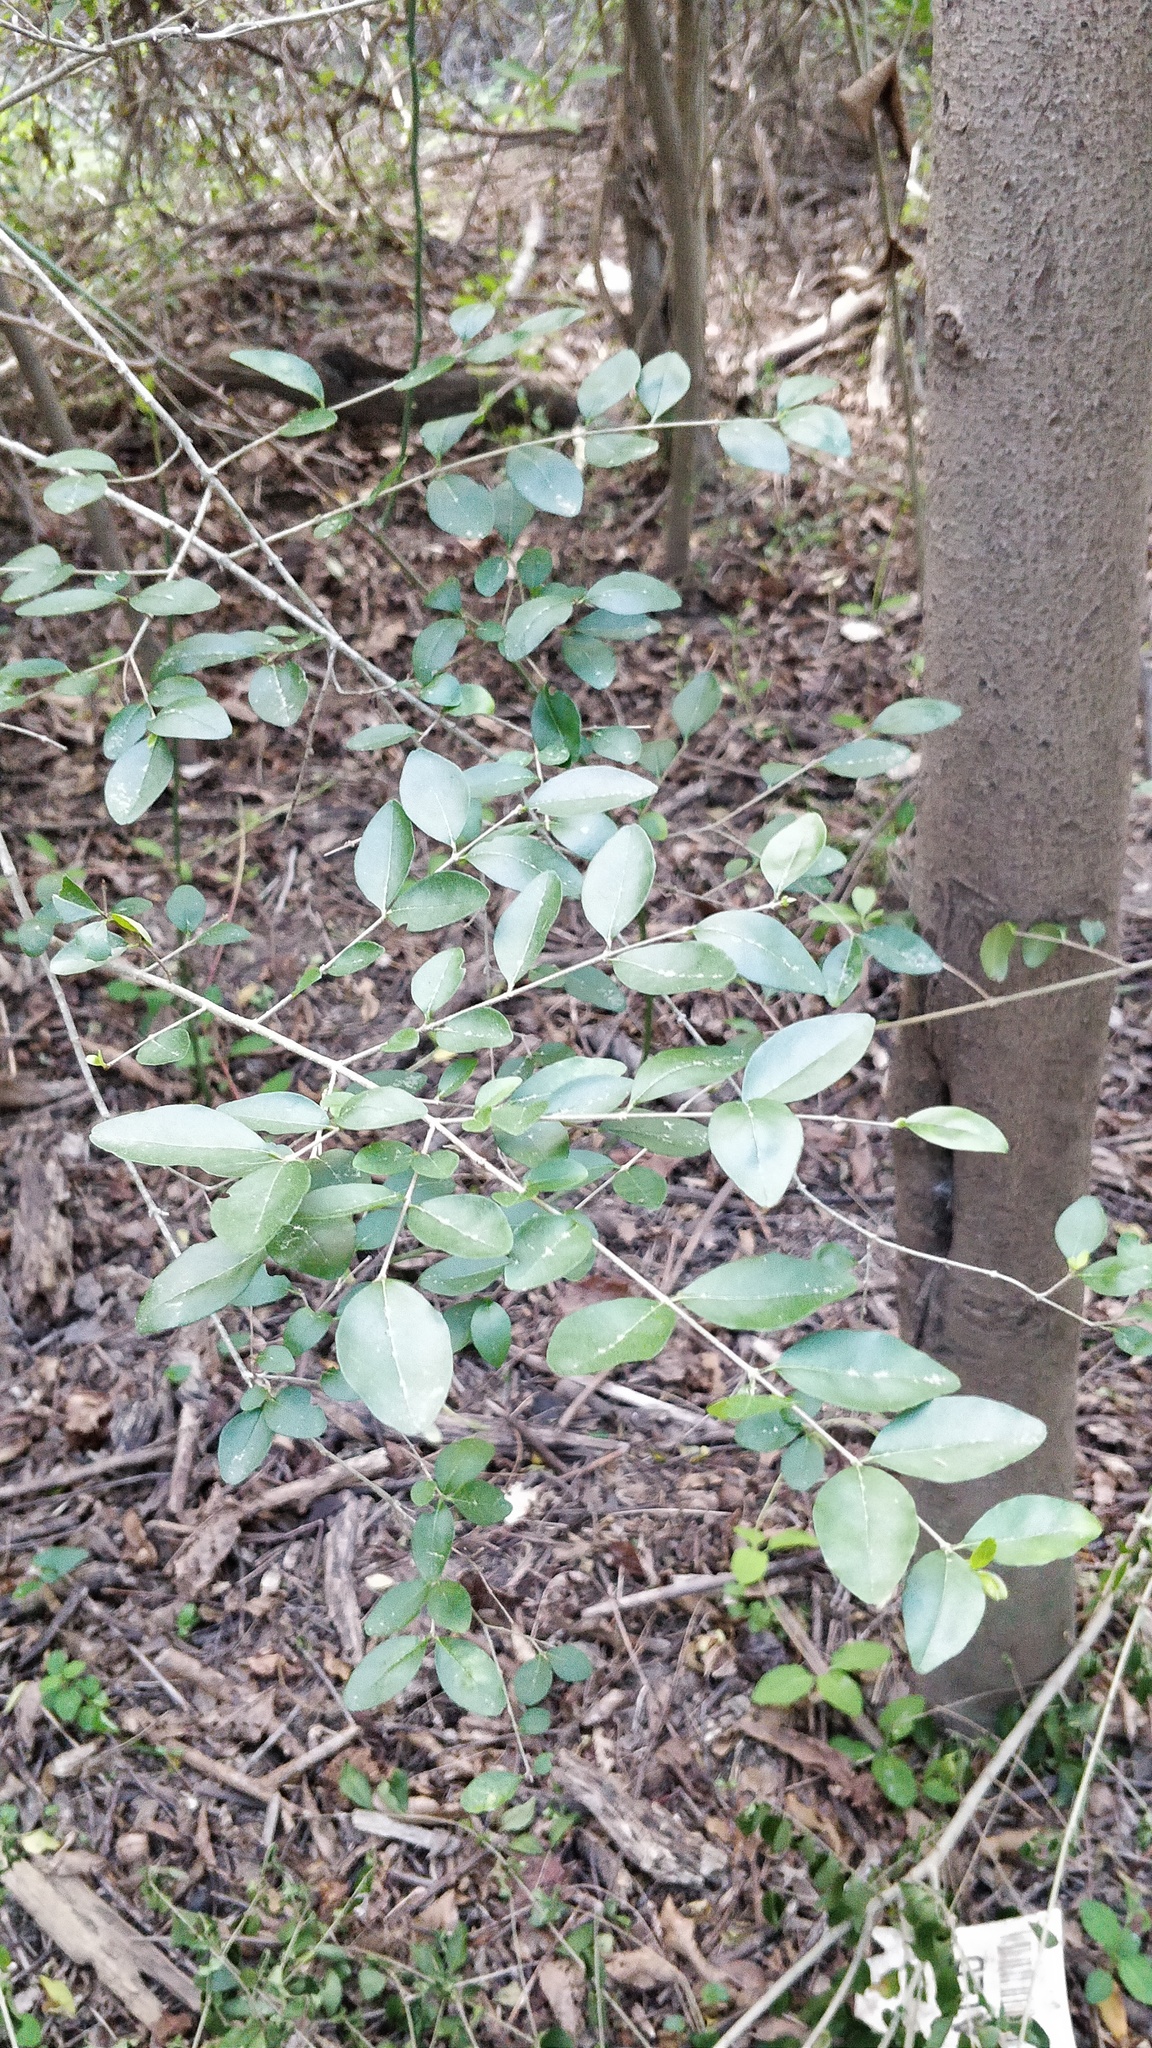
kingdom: Plantae
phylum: Tracheophyta
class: Magnoliopsida
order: Lamiales
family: Oleaceae
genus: Ligustrum
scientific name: Ligustrum sinense
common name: Chinese privet
